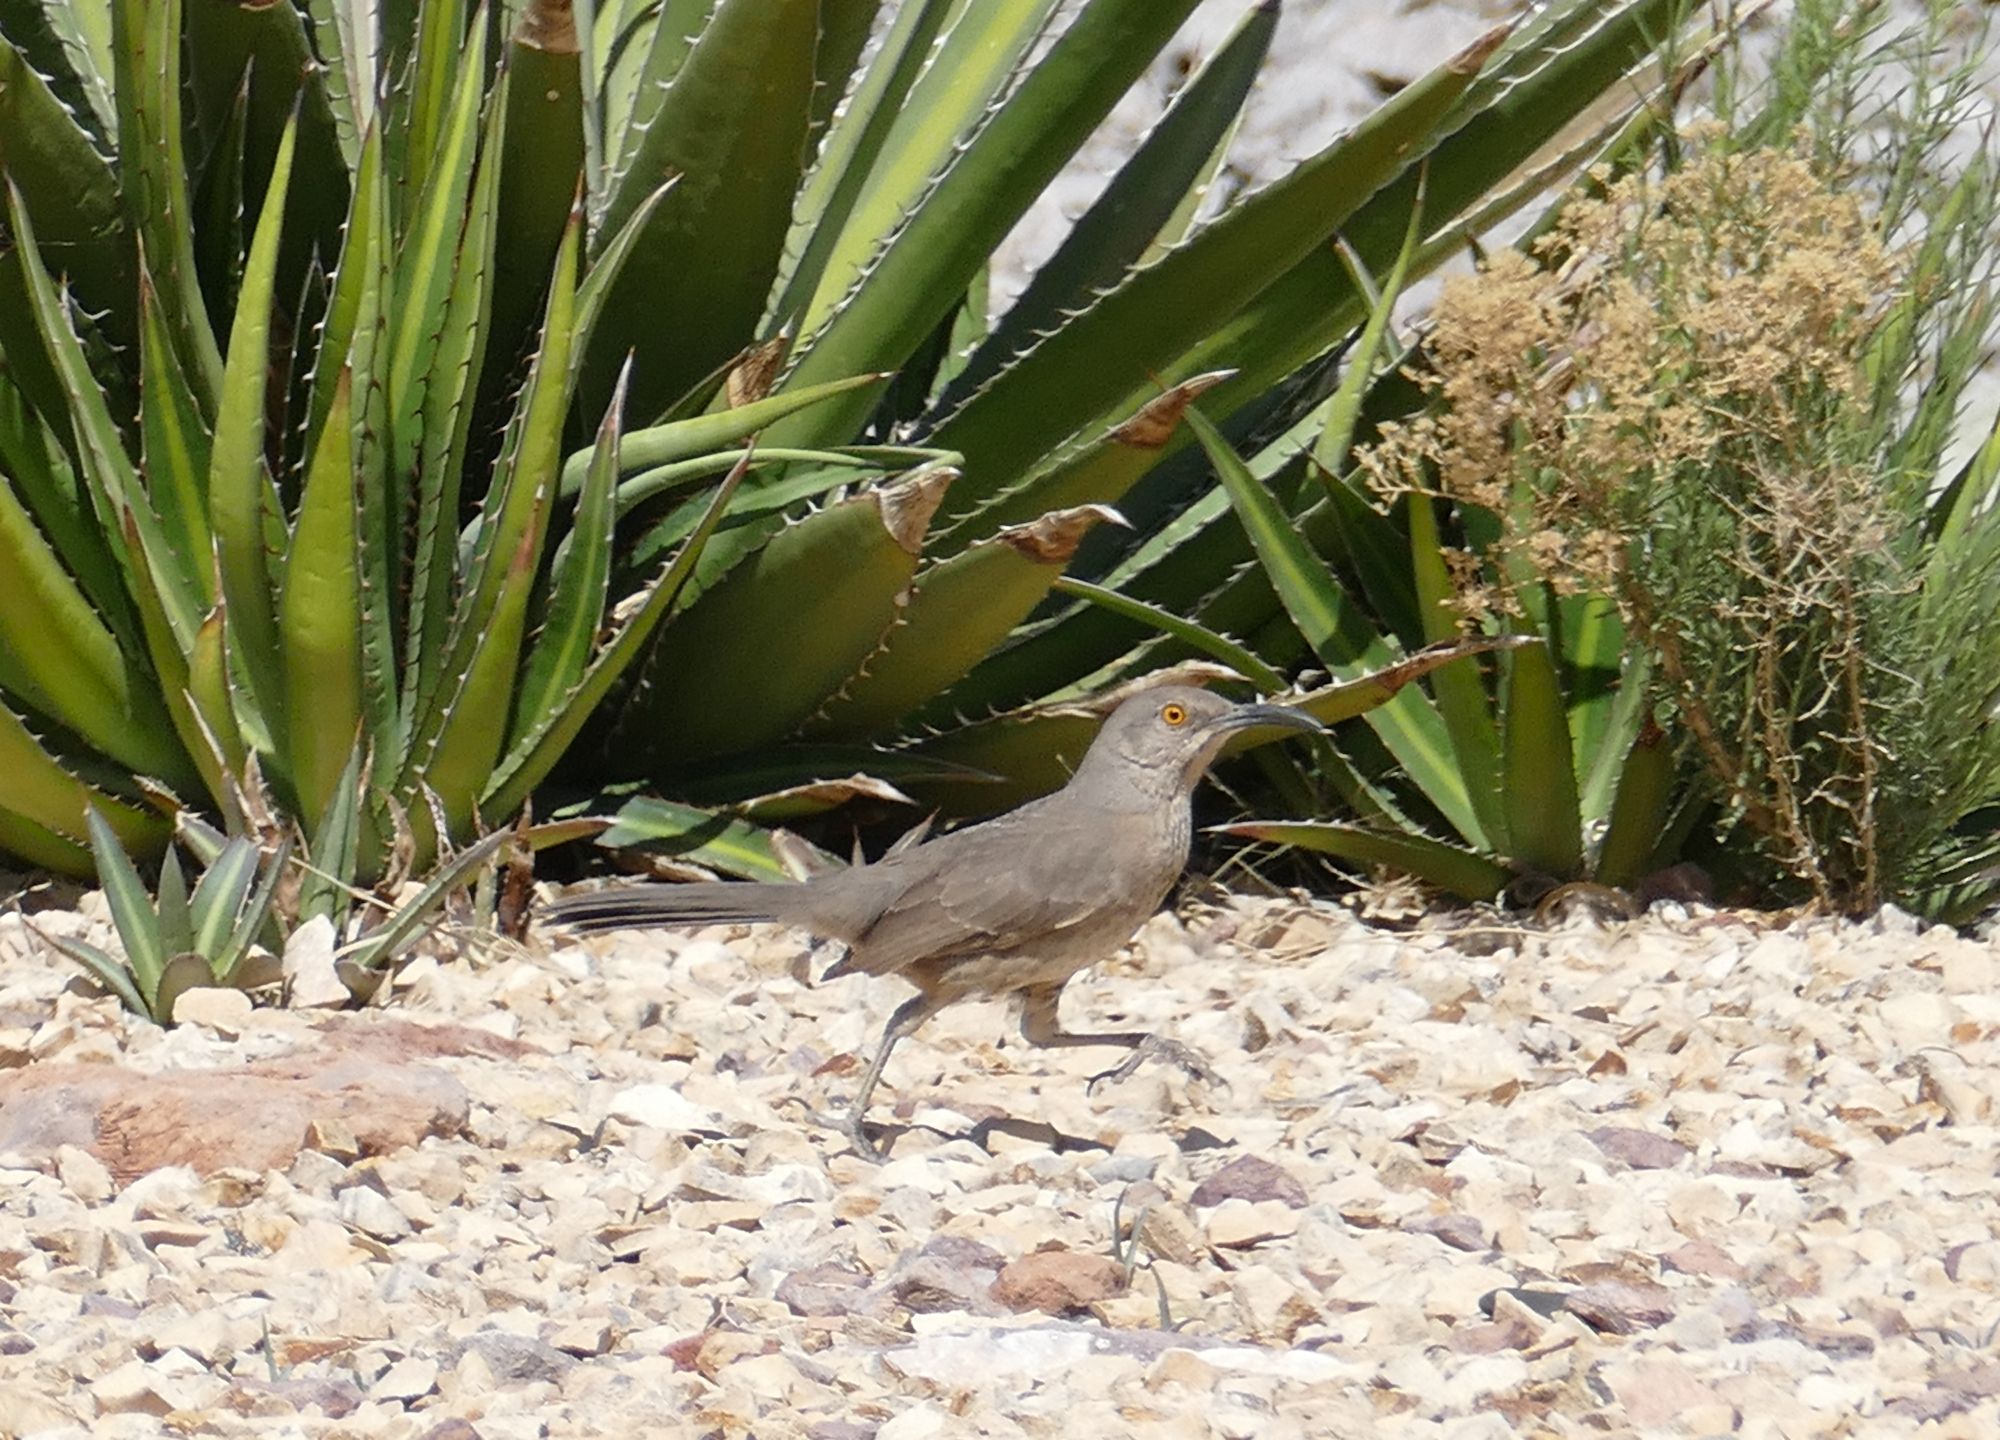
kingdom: Animalia
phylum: Chordata
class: Aves
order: Passeriformes
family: Mimidae
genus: Toxostoma
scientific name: Toxostoma curvirostre
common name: Curve-billed thrasher
